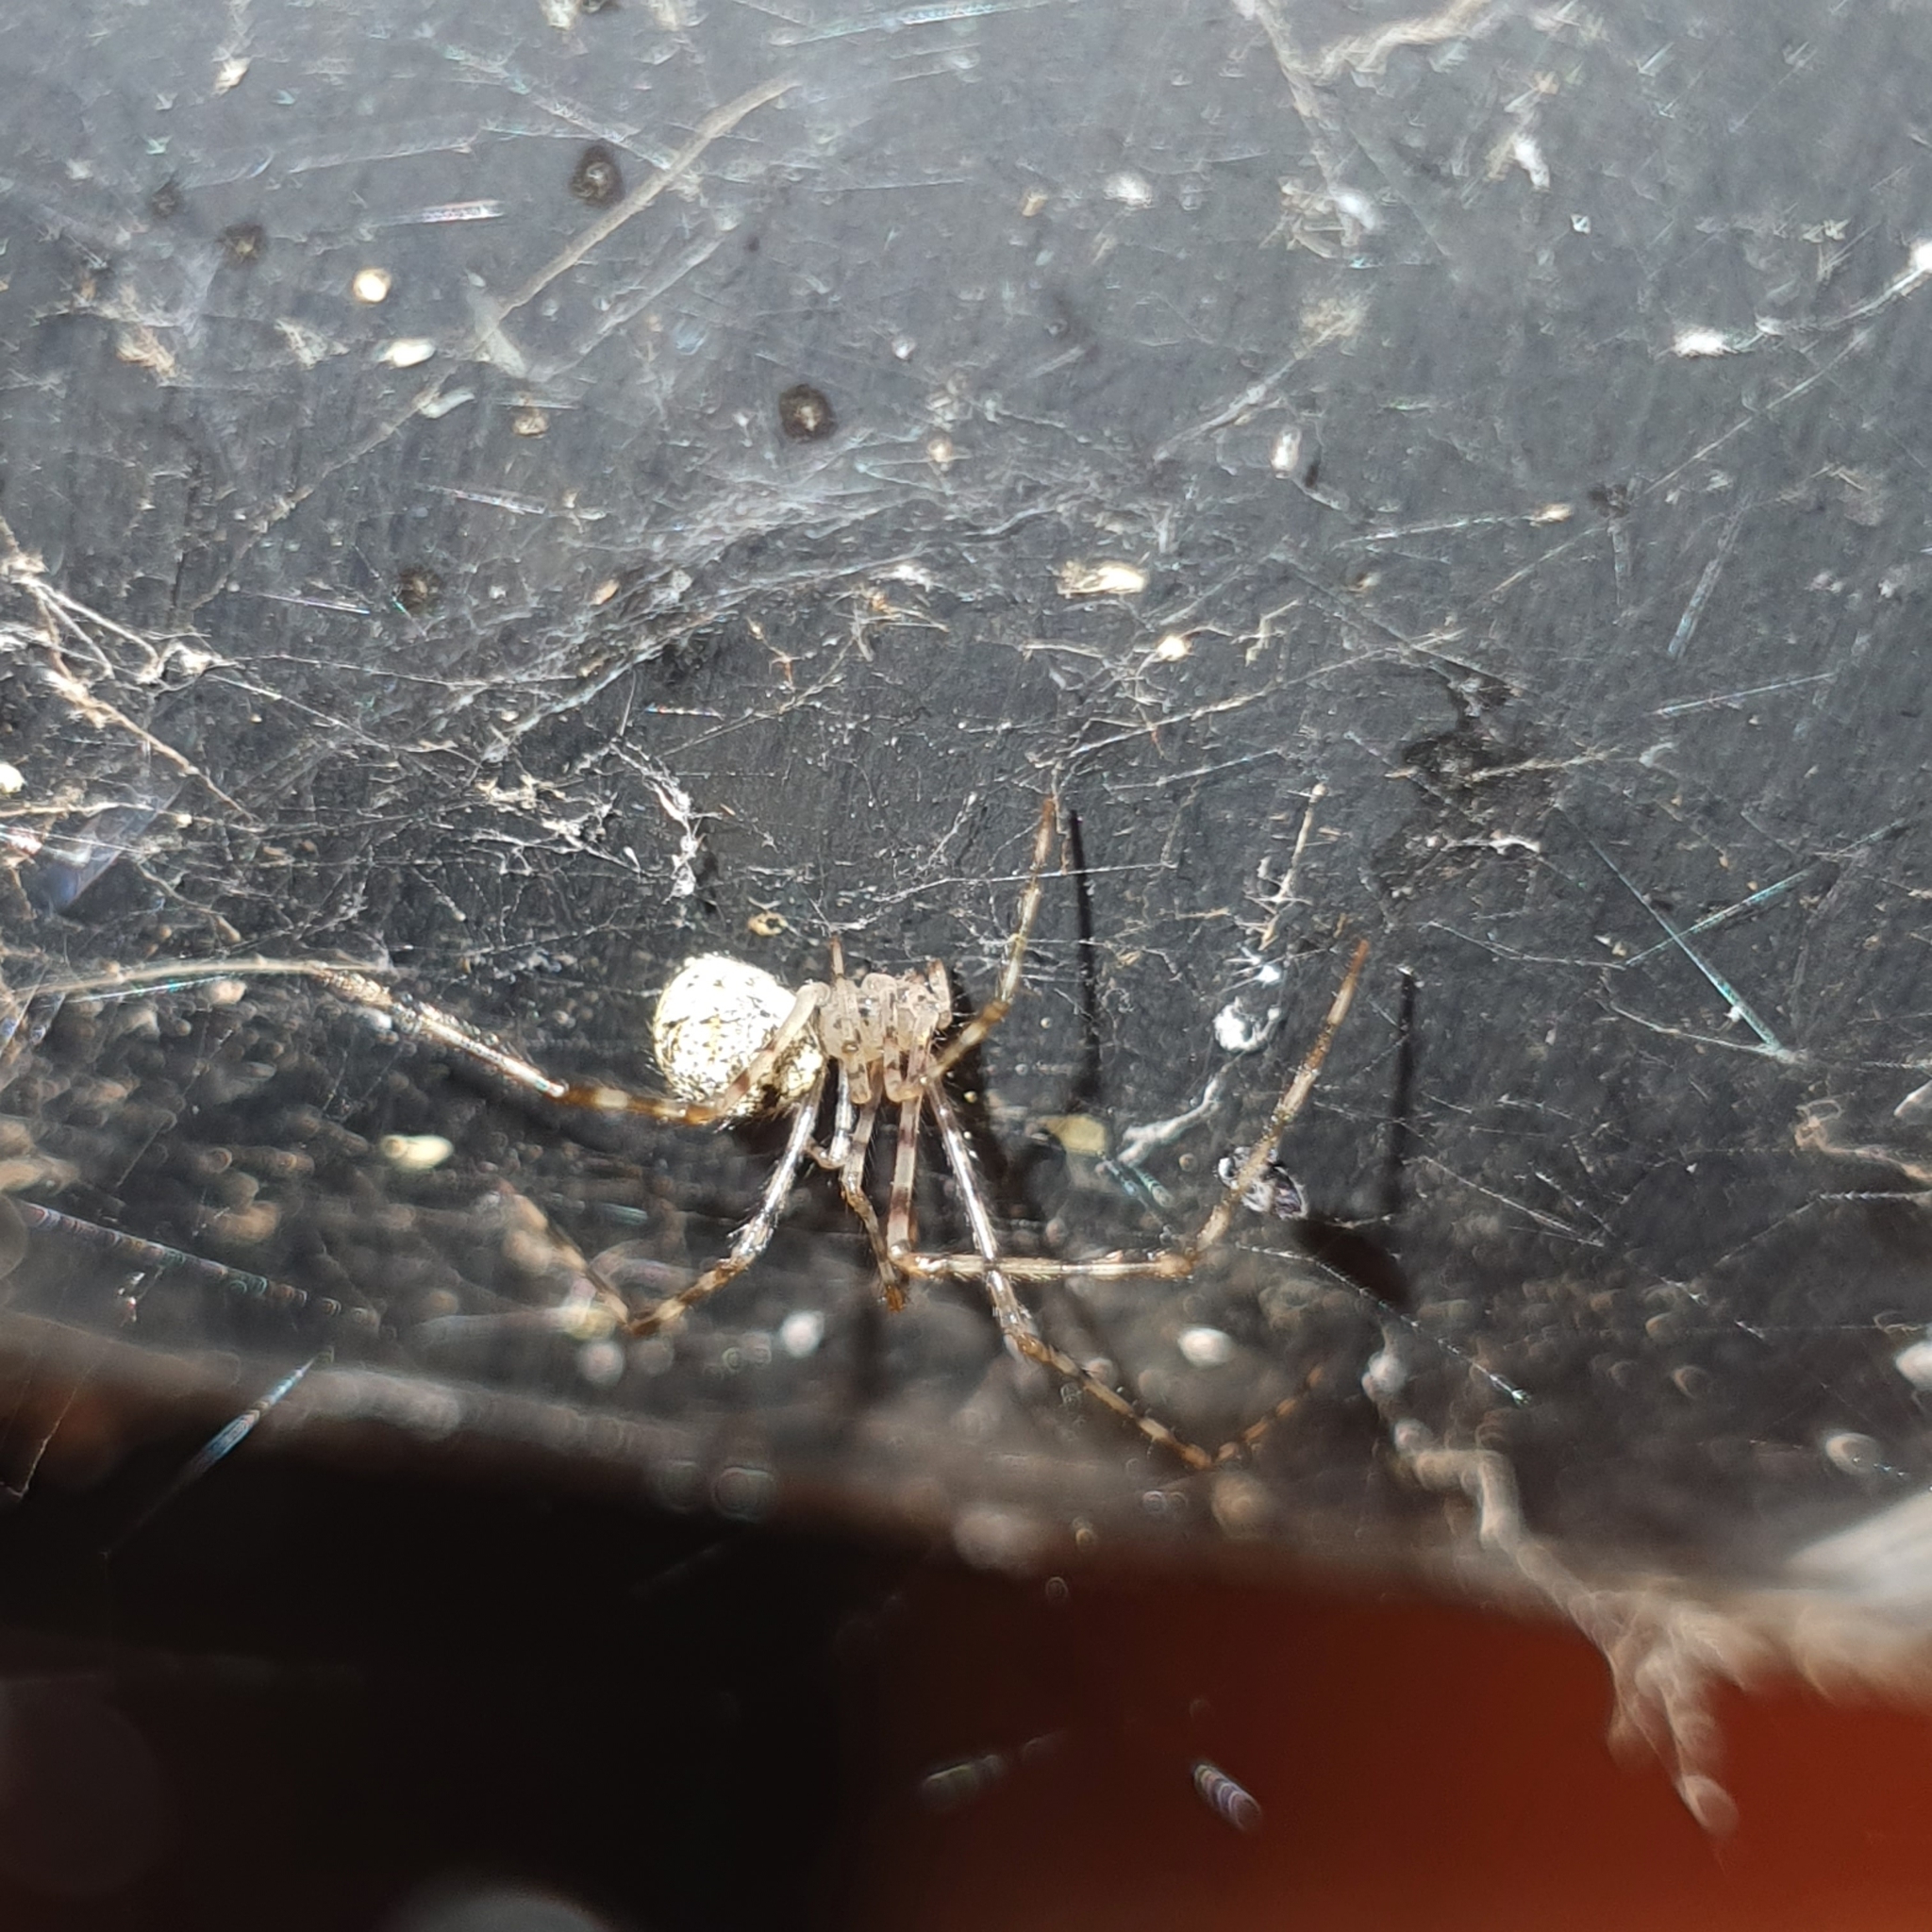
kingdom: Animalia
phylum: Arthropoda
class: Arachnida
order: Araneae
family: Theridiidae
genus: Cryptachaea
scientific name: Cryptachaea gigantipes
